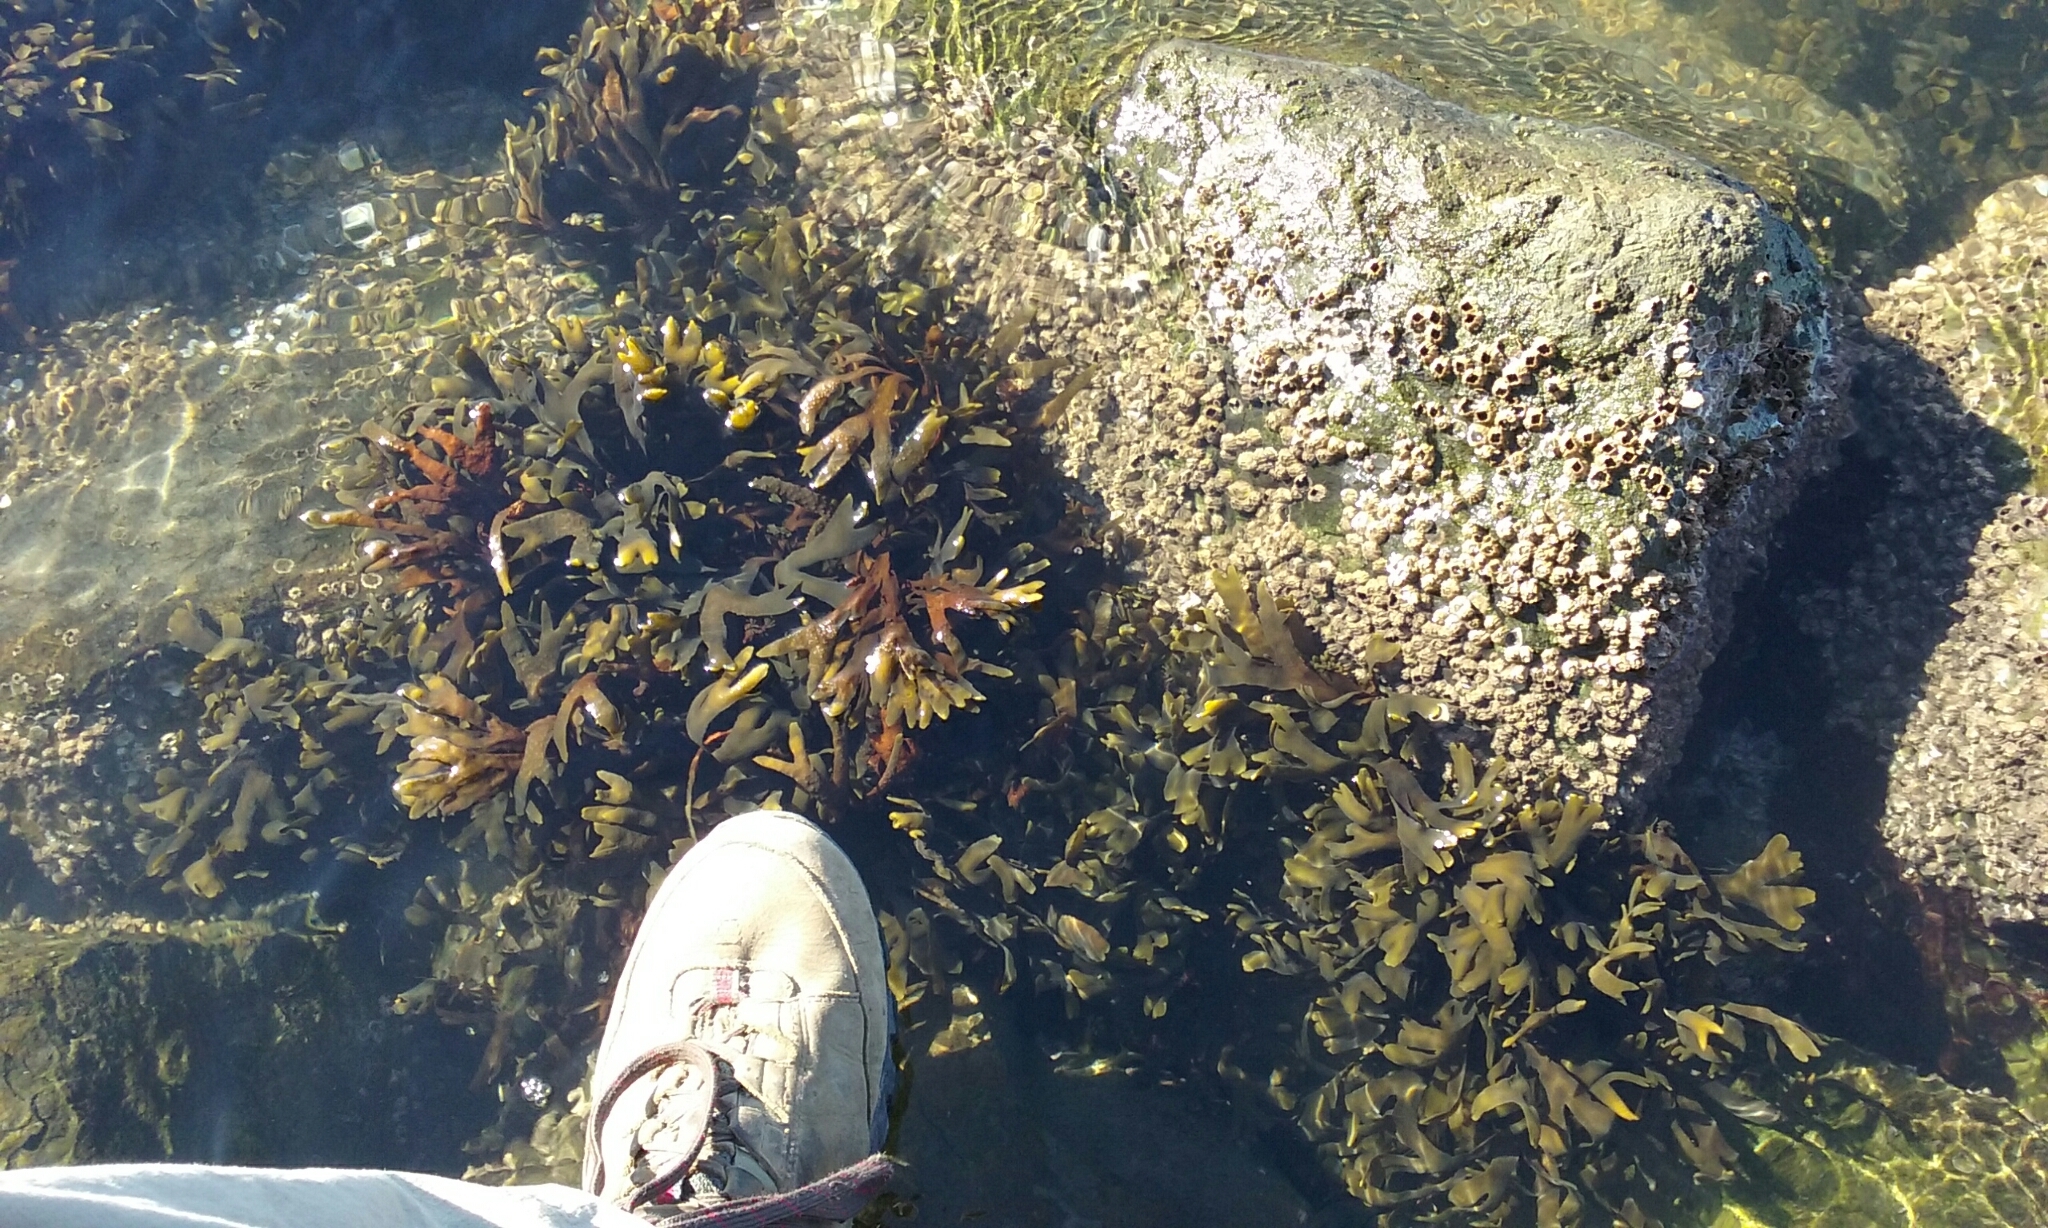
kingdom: Chromista
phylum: Ochrophyta
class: Phaeophyceae
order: Fucales
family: Fucaceae
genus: Fucus
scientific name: Fucus distichus
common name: Rockweed
